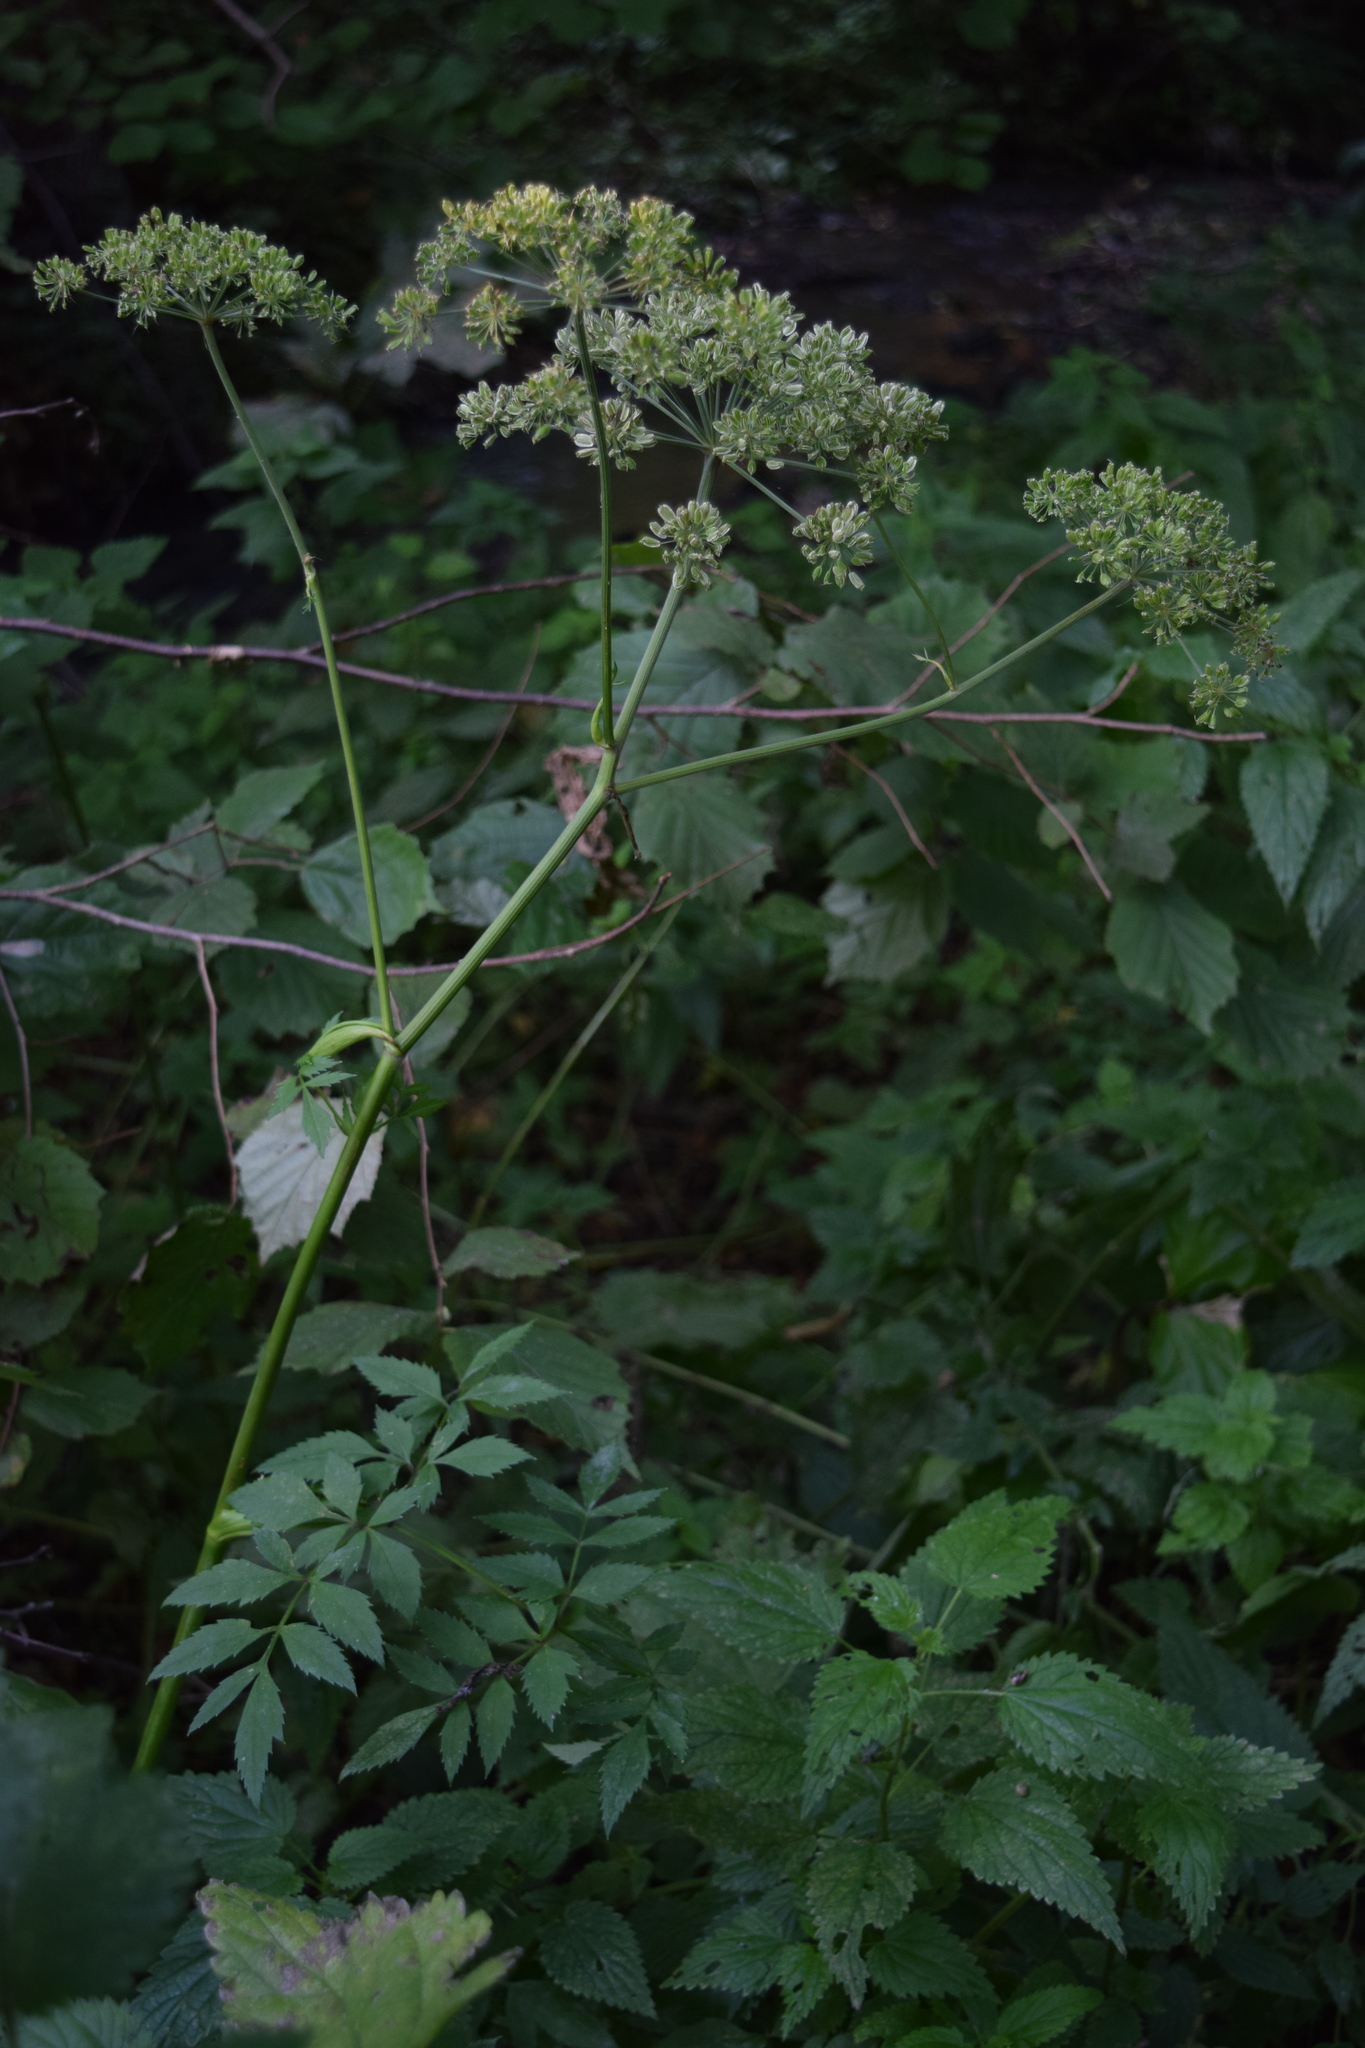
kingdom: Plantae
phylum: Tracheophyta
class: Magnoliopsida
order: Apiales
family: Apiaceae
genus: Angelica
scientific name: Angelica sylvestris
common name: Wild angelica
